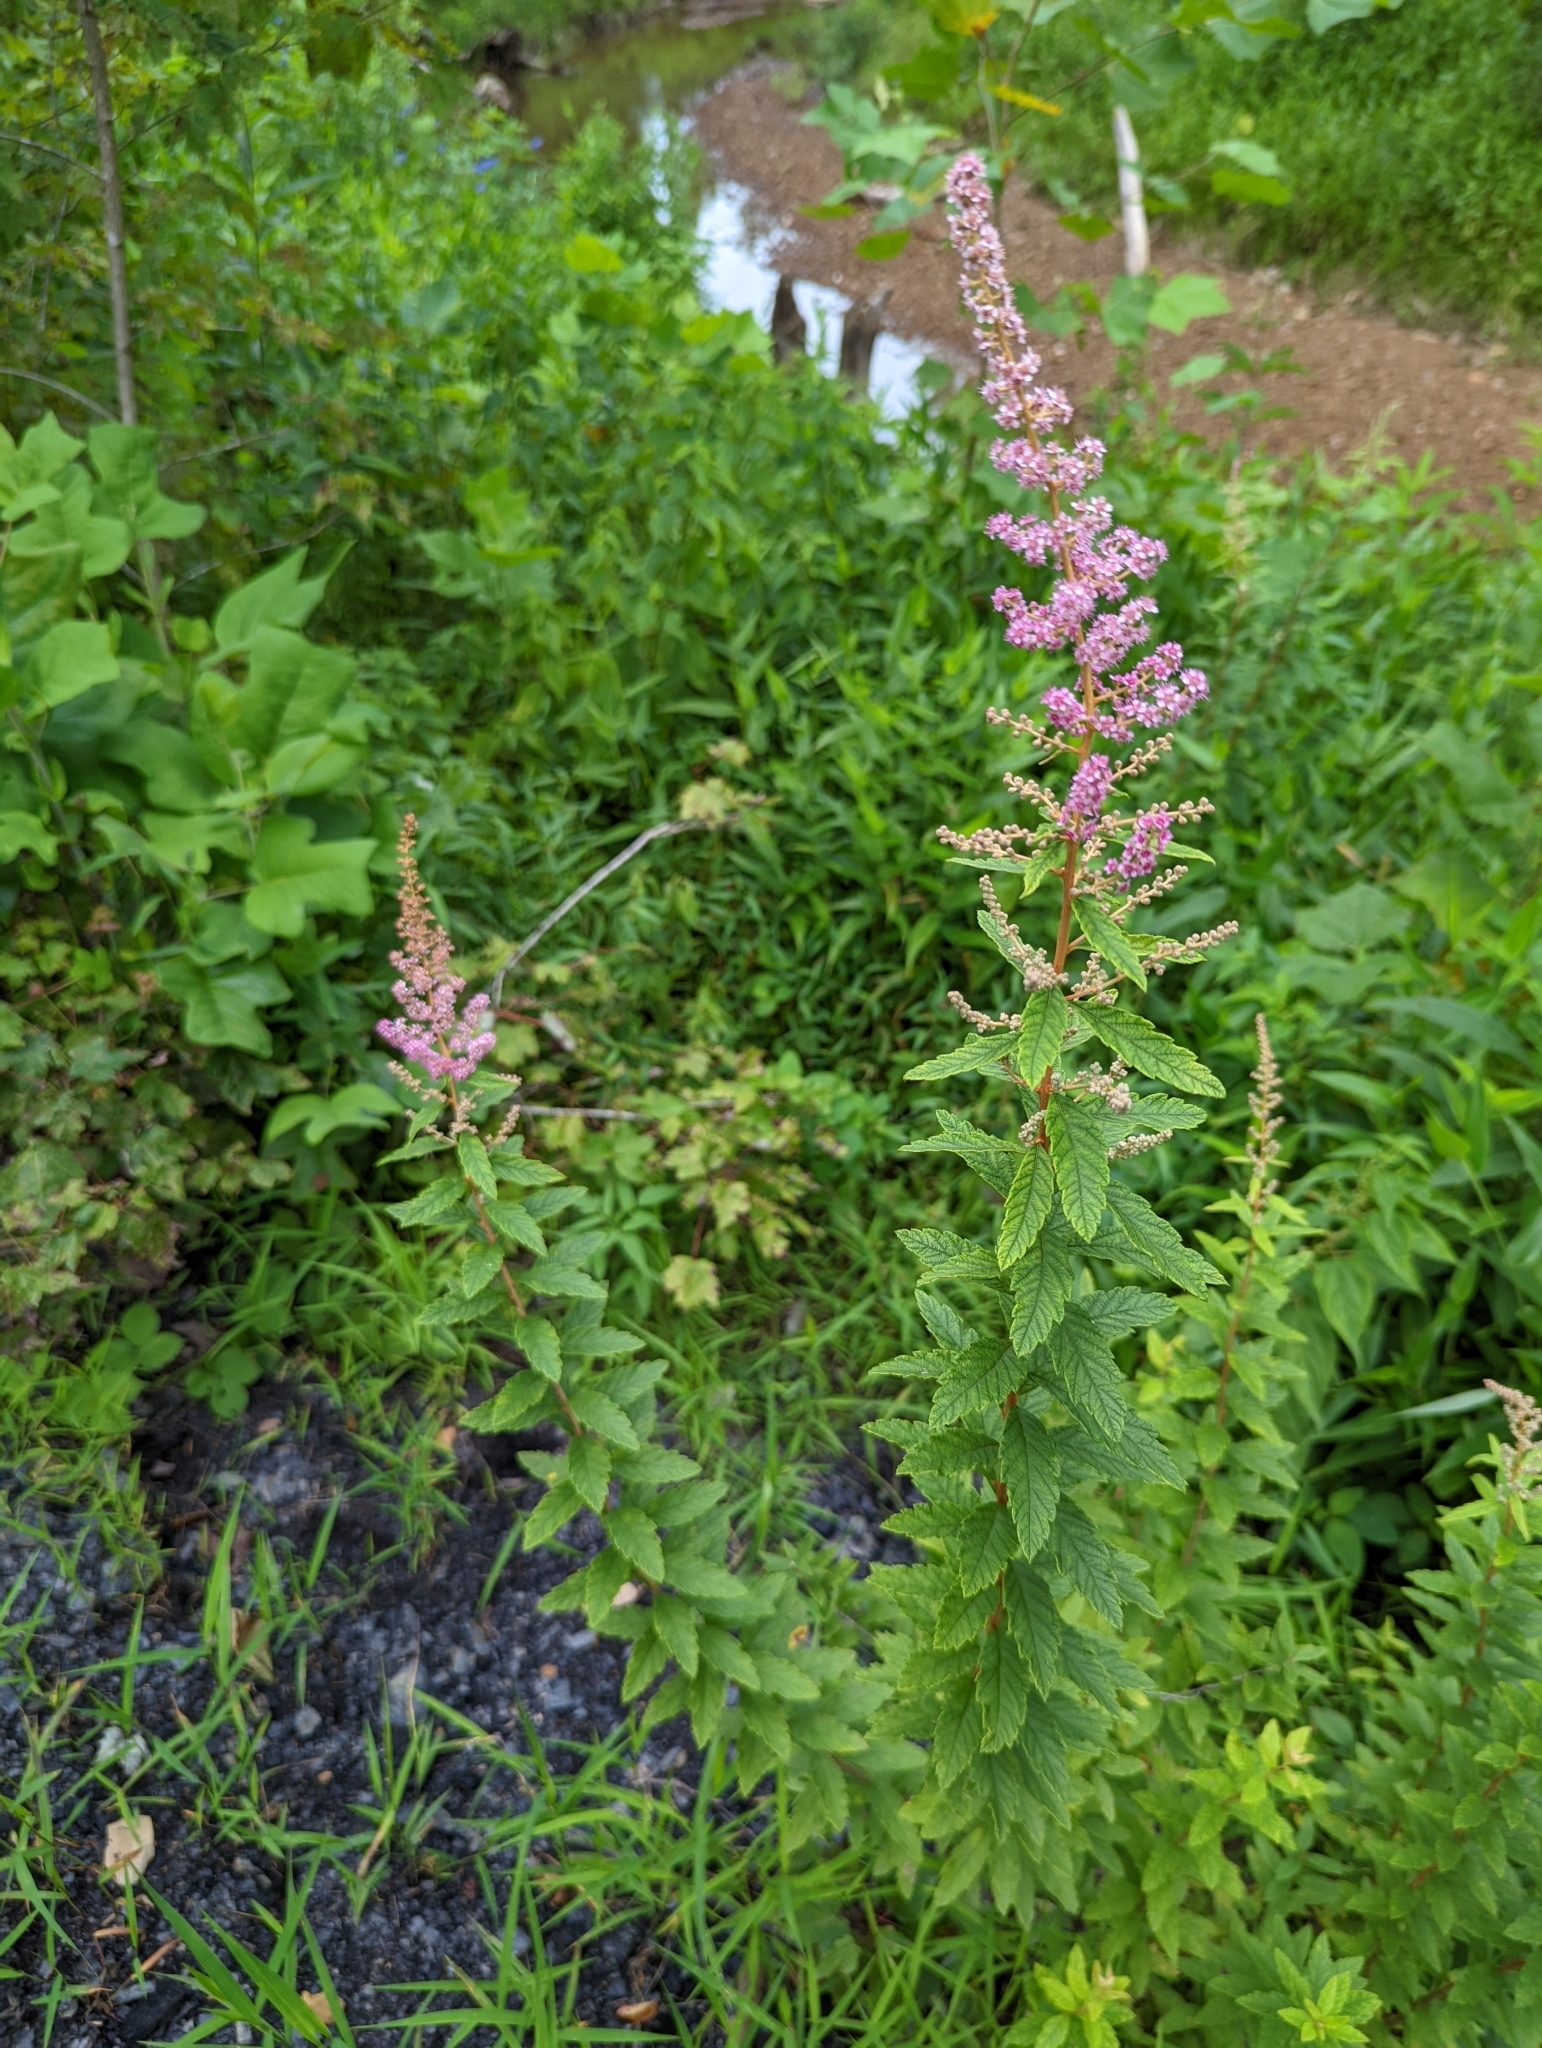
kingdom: Plantae
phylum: Tracheophyta
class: Magnoliopsida
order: Rosales
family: Rosaceae
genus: Spiraea
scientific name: Spiraea tomentosa
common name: Hardhack
